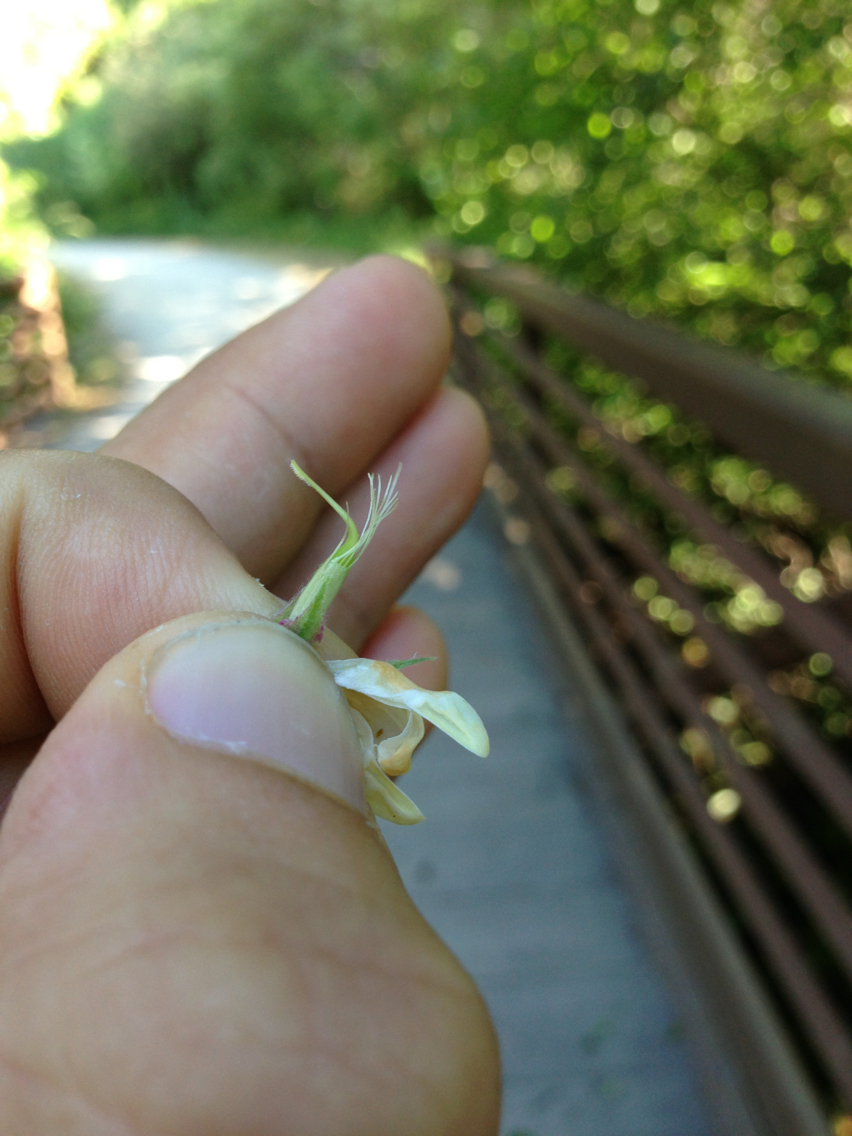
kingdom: Plantae
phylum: Tracheophyta
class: Magnoliopsida
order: Fabales
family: Fabaceae
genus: Lathyrus
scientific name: Lathyrus vestitus
